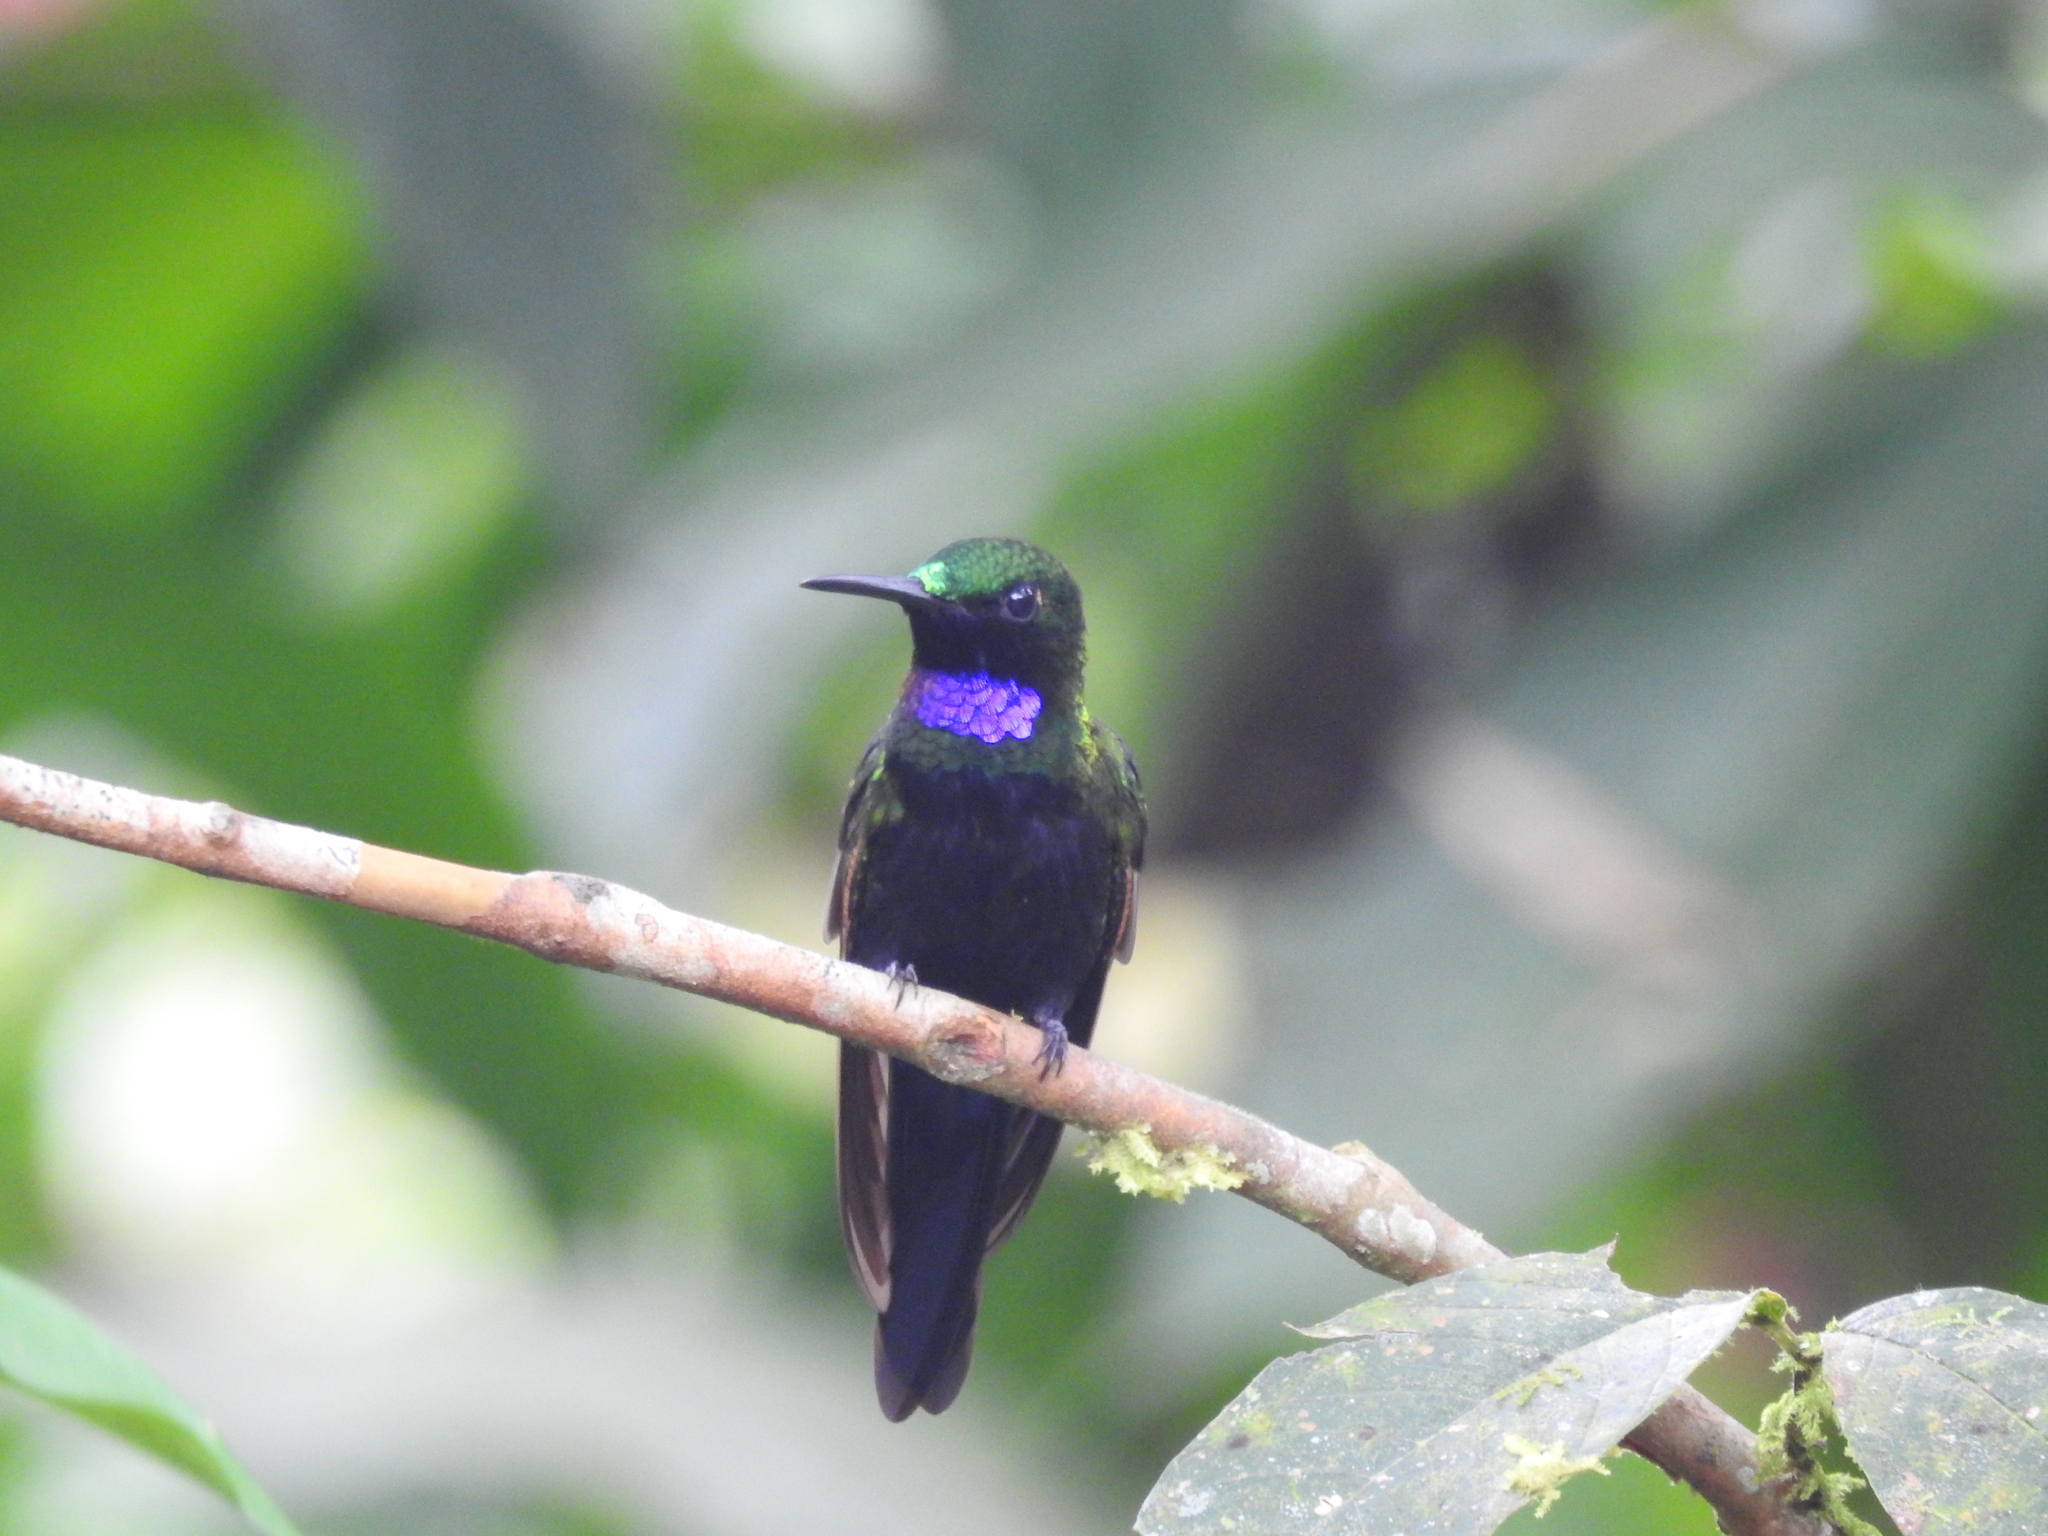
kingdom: Animalia
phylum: Chordata
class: Aves
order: Apodiformes
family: Trochilidae
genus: Thalurania
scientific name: Thalurania furcata
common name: Fork-tailed woodnymph
